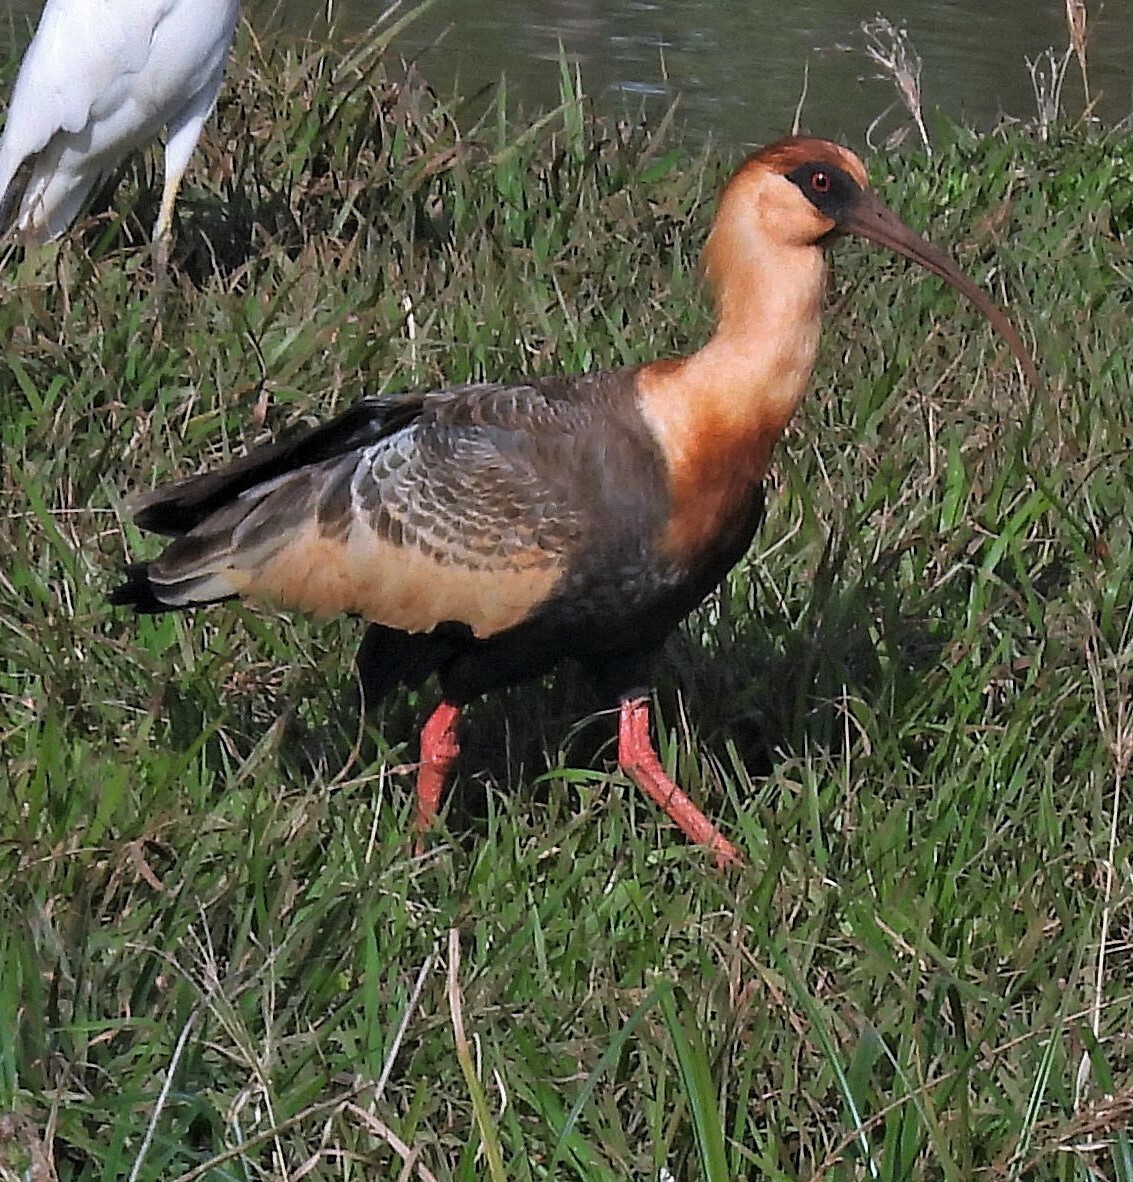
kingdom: Animalia
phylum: Chordata
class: Aves
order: Pelecaniformes
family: Threskiornithidae
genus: Theristicus
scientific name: Theristicus caudatus
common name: Buff-necked ibis
